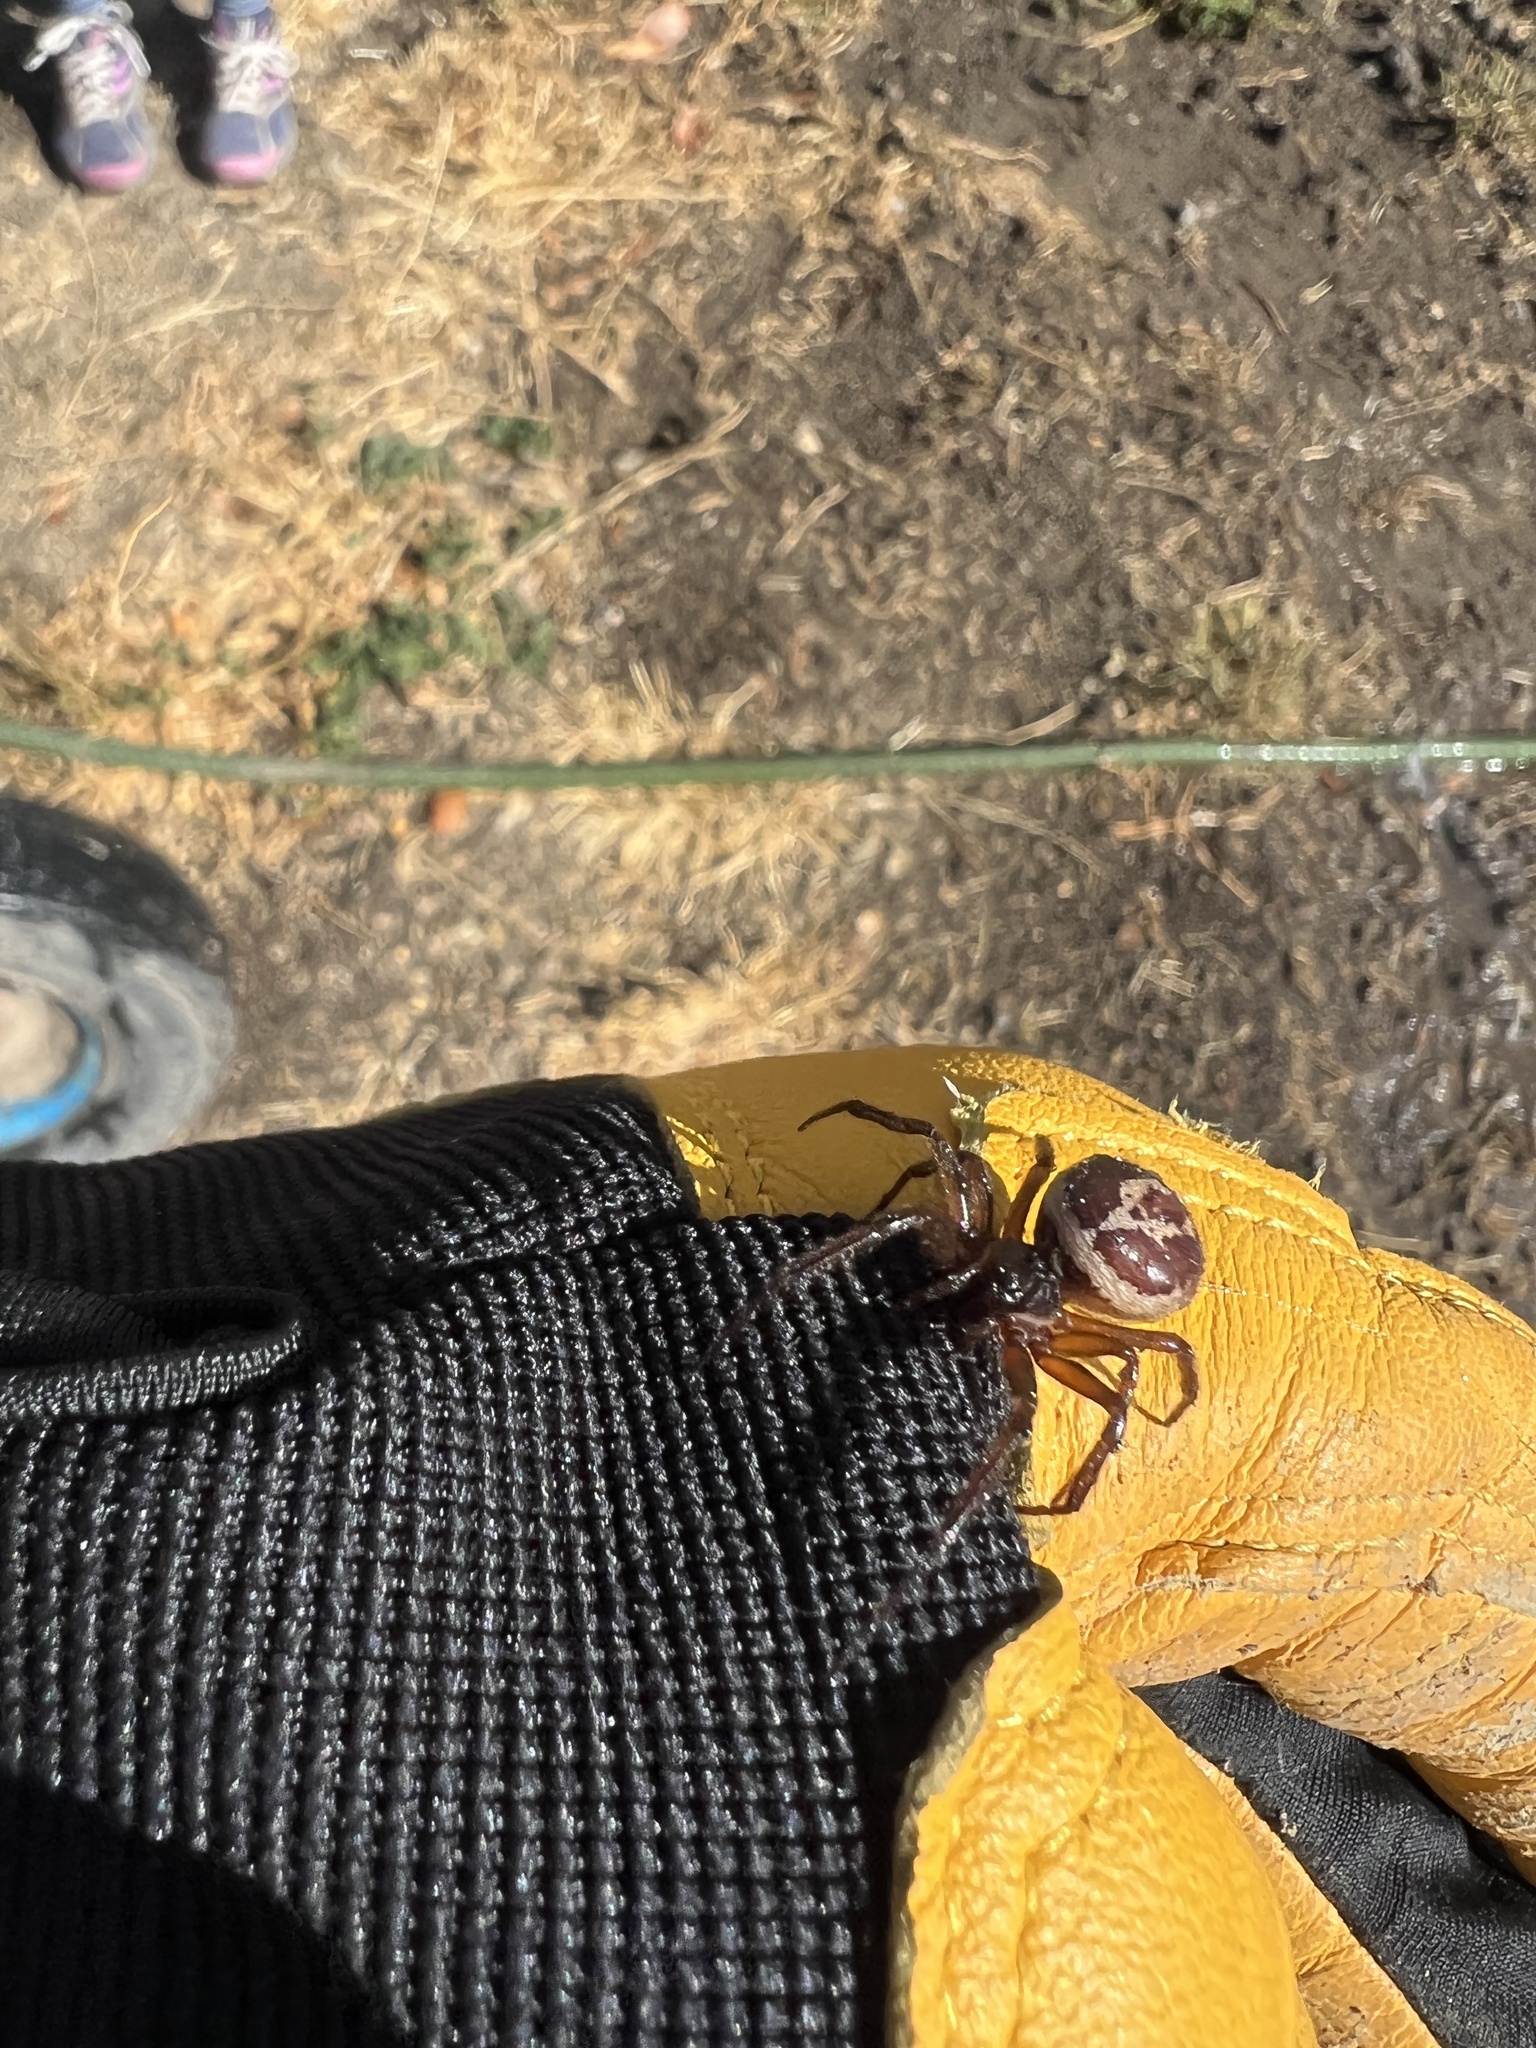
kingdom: Animalia
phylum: Arthropoda
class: Arachnida
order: Araneae
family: Theridiidae
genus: Steatoda
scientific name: Steatoda nobilis
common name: Cobweb weaver
